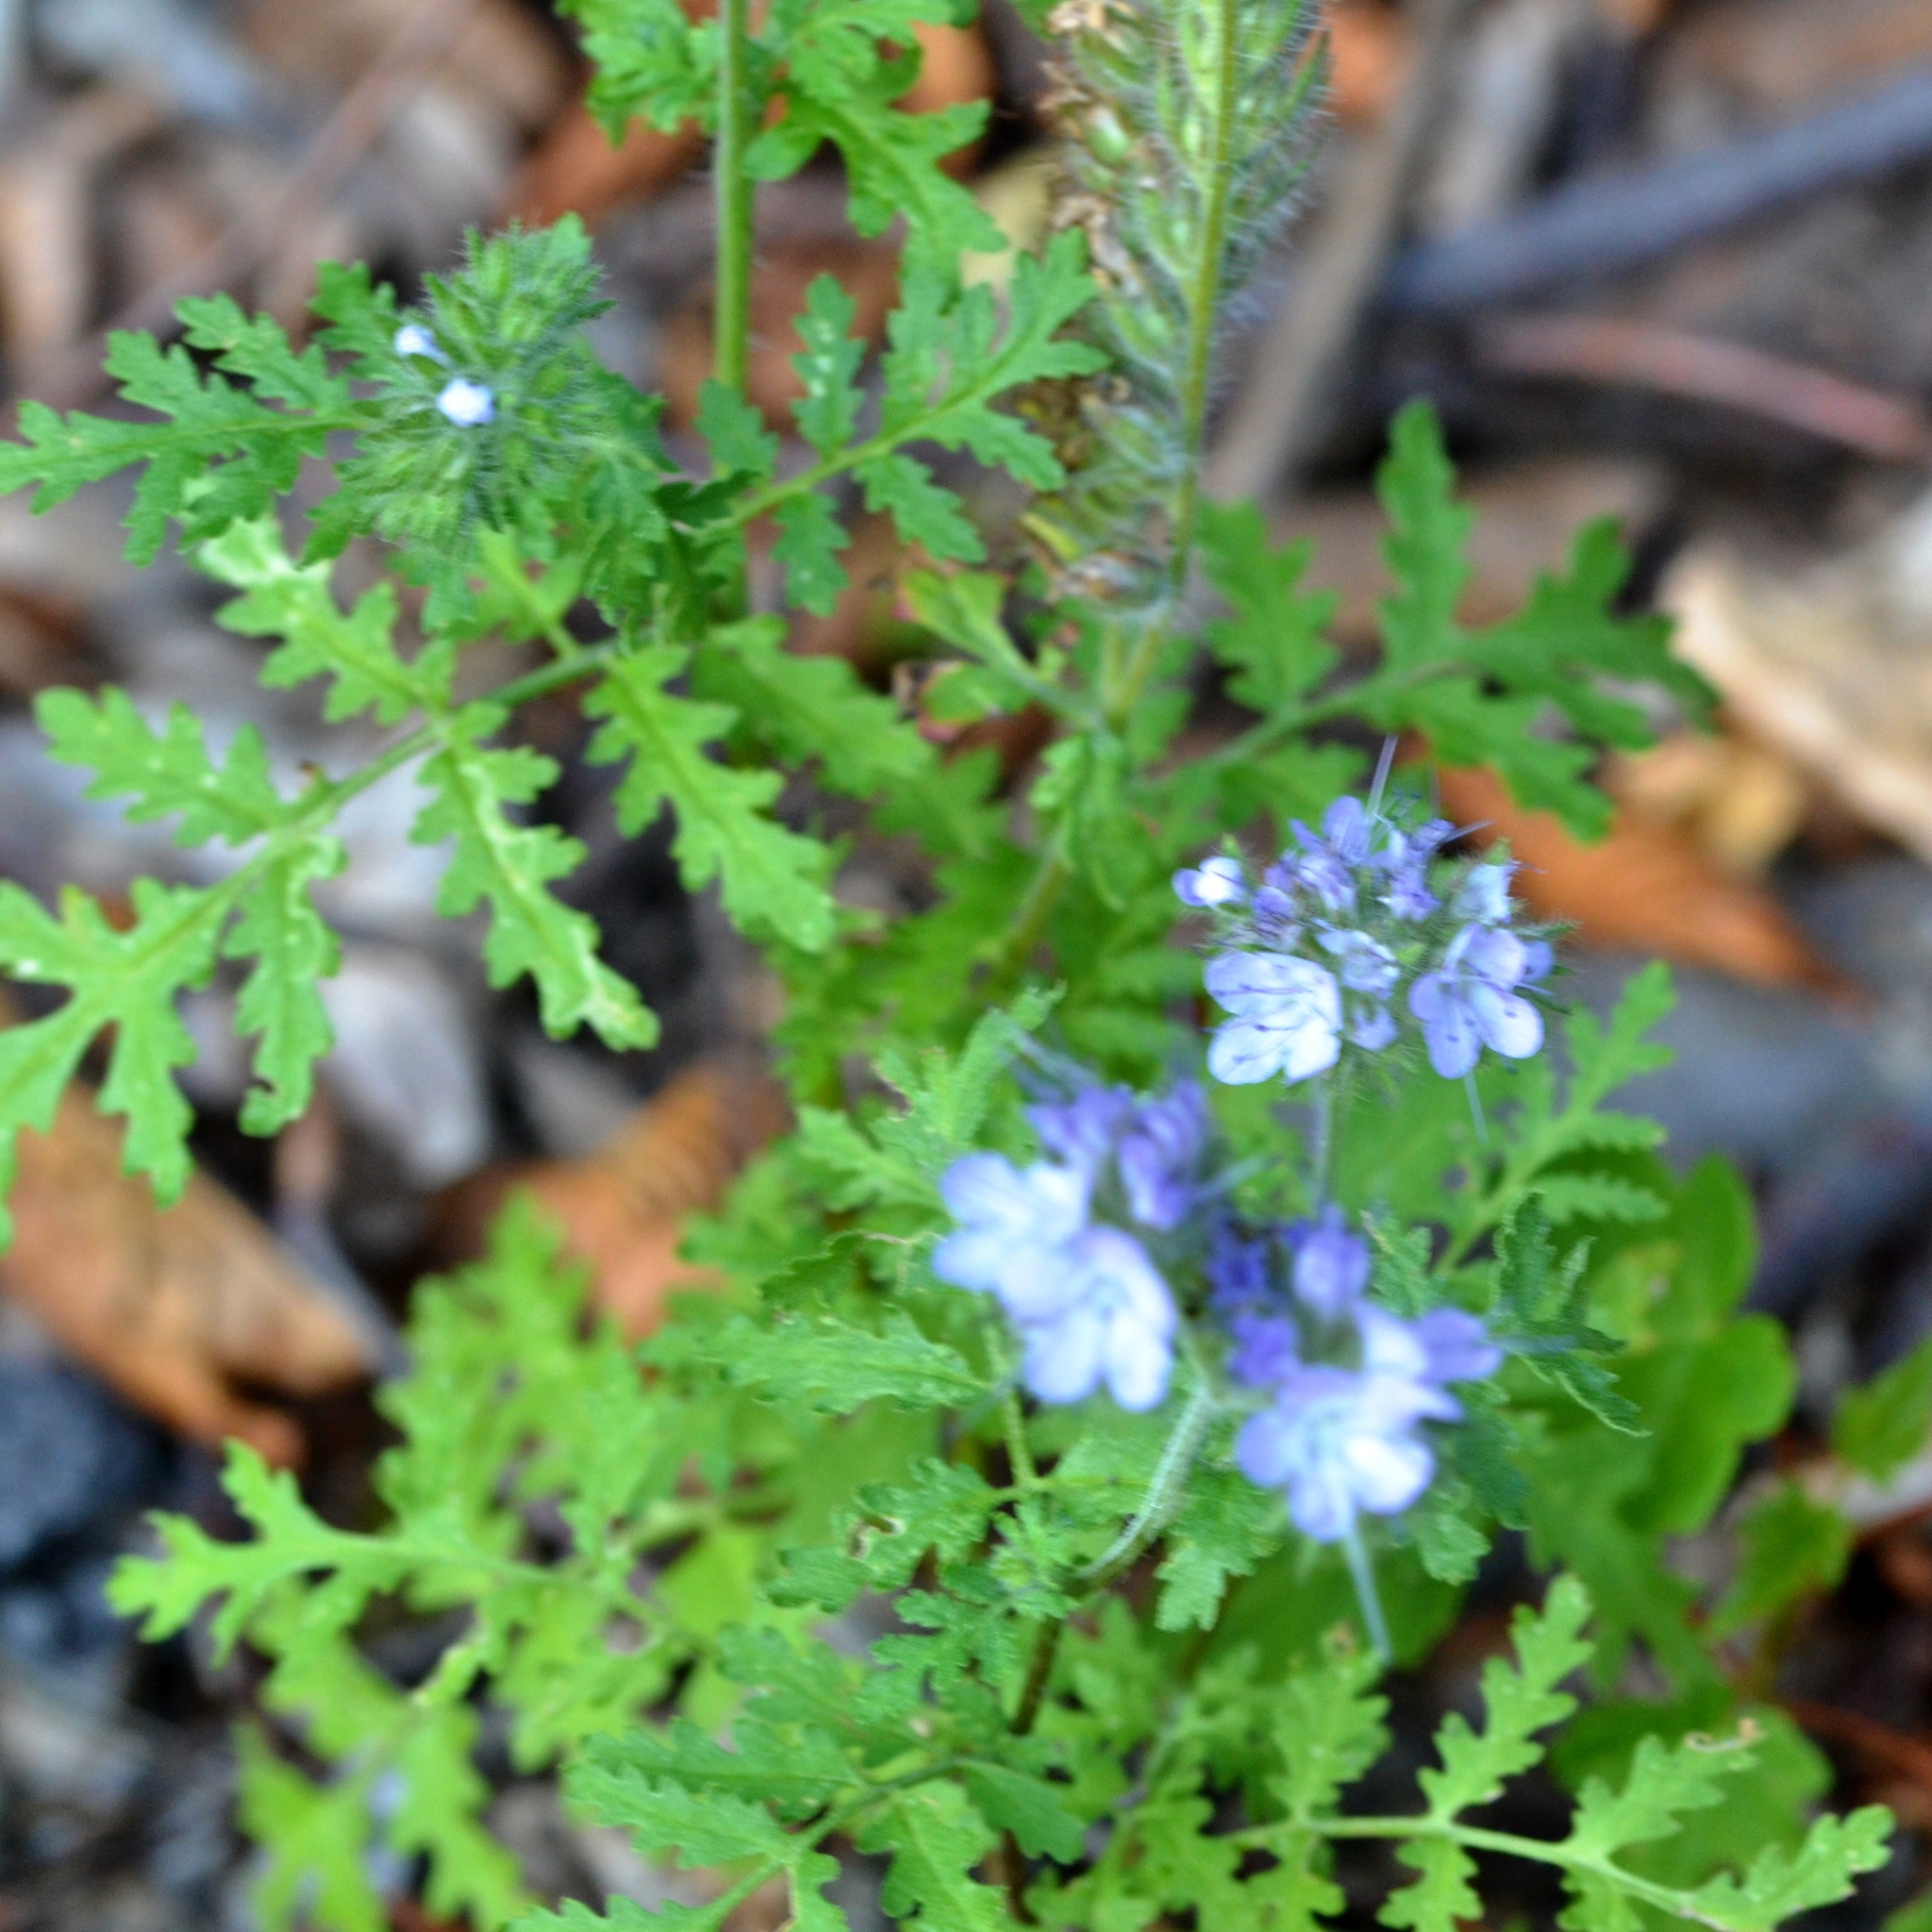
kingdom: Plantae
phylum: Tracheophyta
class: Magnoliopsida
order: Boraginales
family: Hydrophyllaceae
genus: Phacelia
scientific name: Phacelia tanacetifolia
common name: Phacelia
